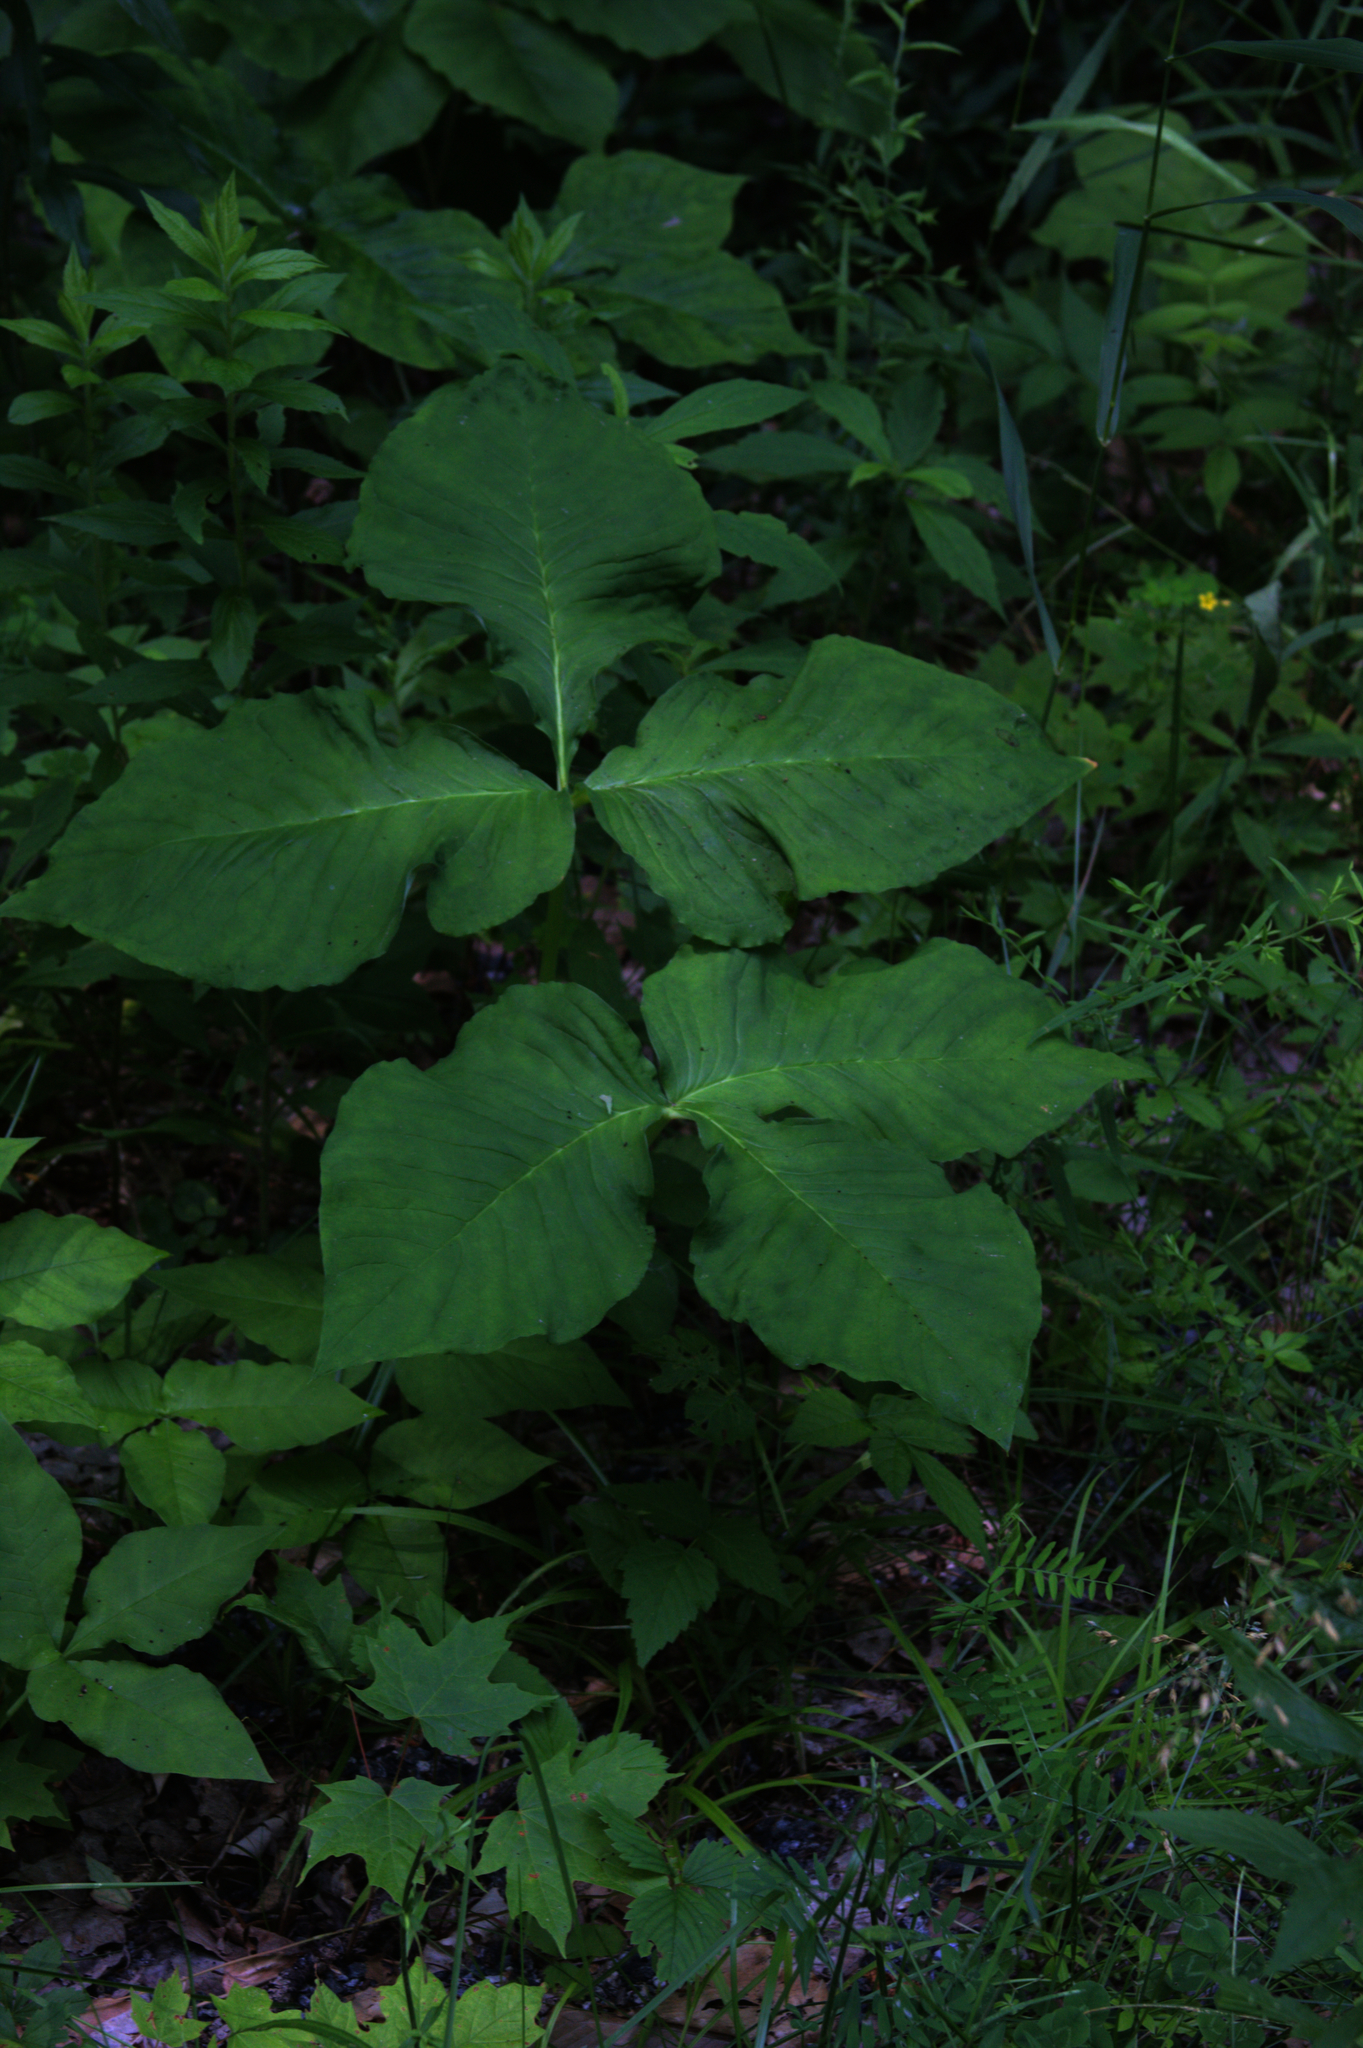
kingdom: Plantae
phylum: Tracheophyta
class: Liliopsida
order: Alismatales
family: Araceae
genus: Arisaema
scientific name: Arisaema triphyllum
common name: Jack-in-the-pulpit
